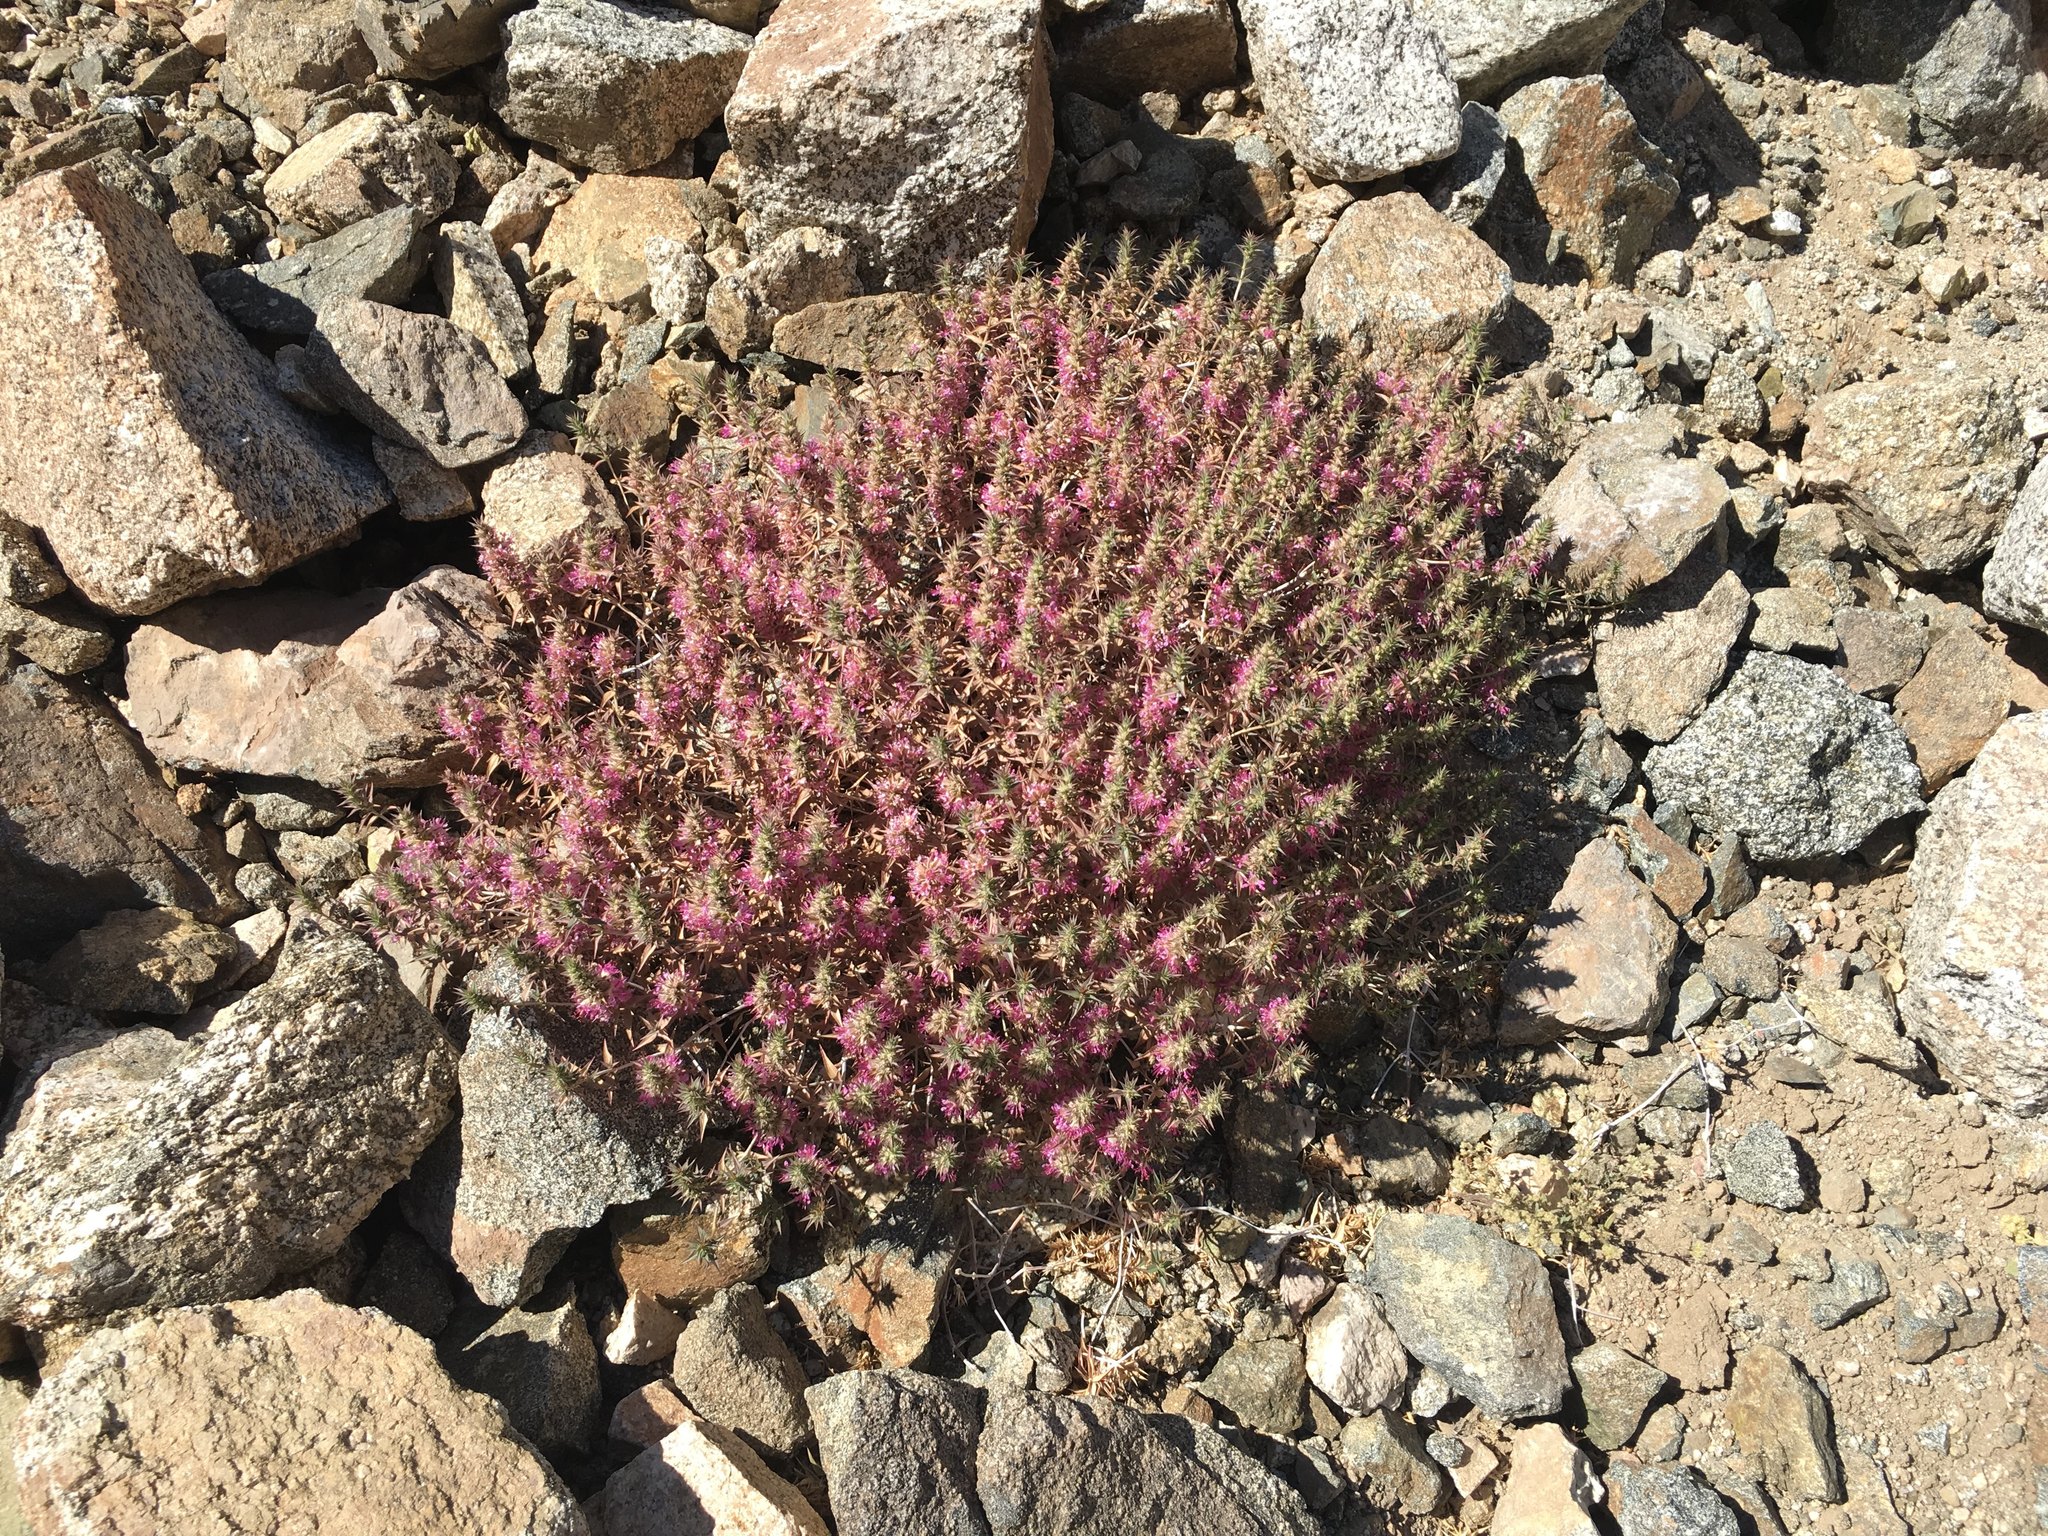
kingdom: Plantae
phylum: Tracheophyta
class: Magnoliopsida
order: Myrtales
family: Lythraceae
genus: Pleurophora
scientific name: Pleurophora pungens
